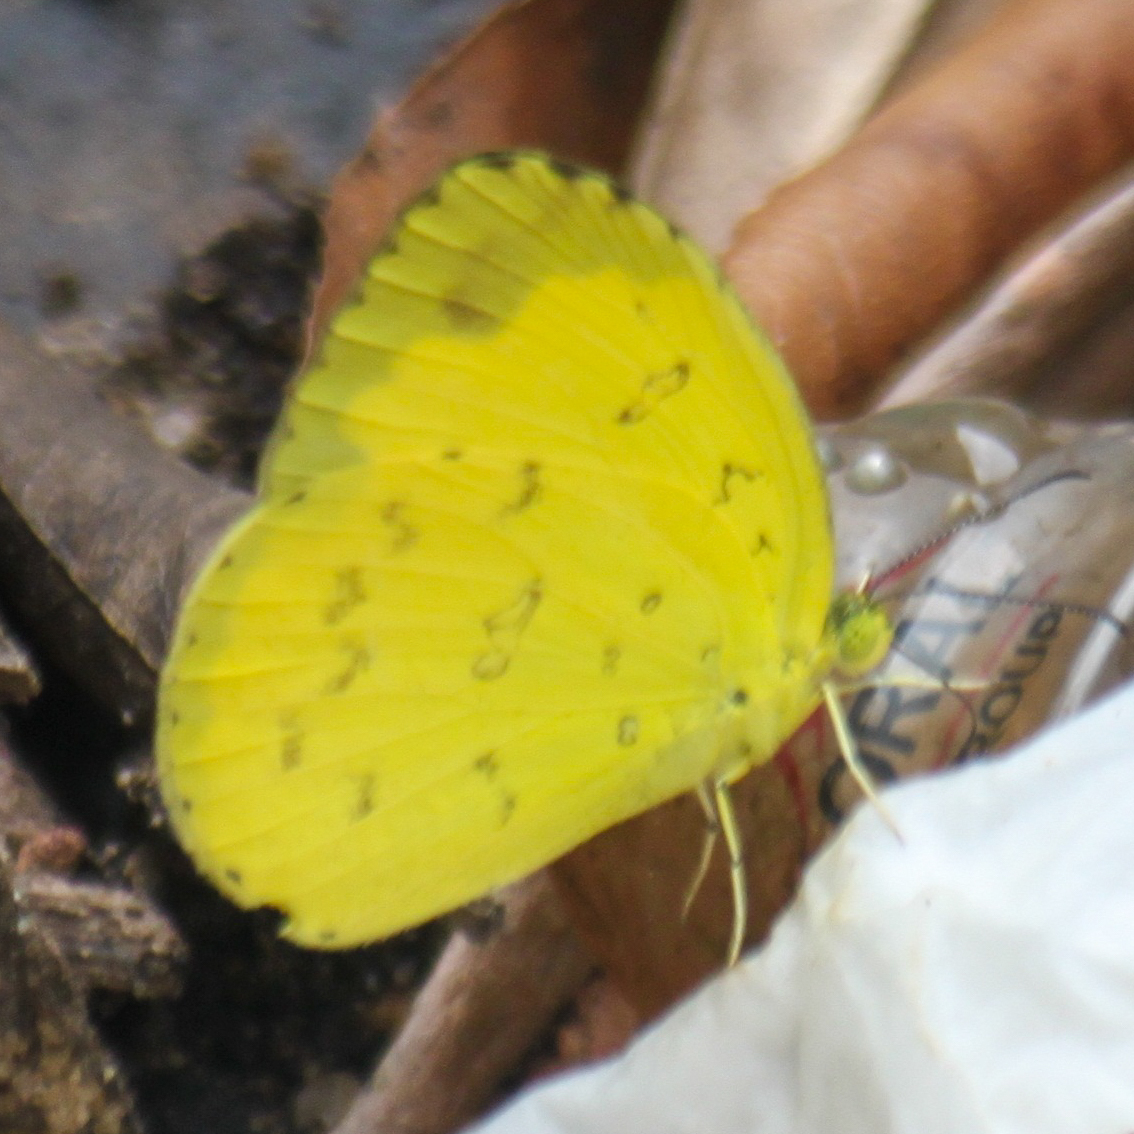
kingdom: Animalia
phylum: Arthropoda
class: Insecta
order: Lepidoptera
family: Pieridae
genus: Eurema
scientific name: Eurema blanda
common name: Three-spot grass yellow
